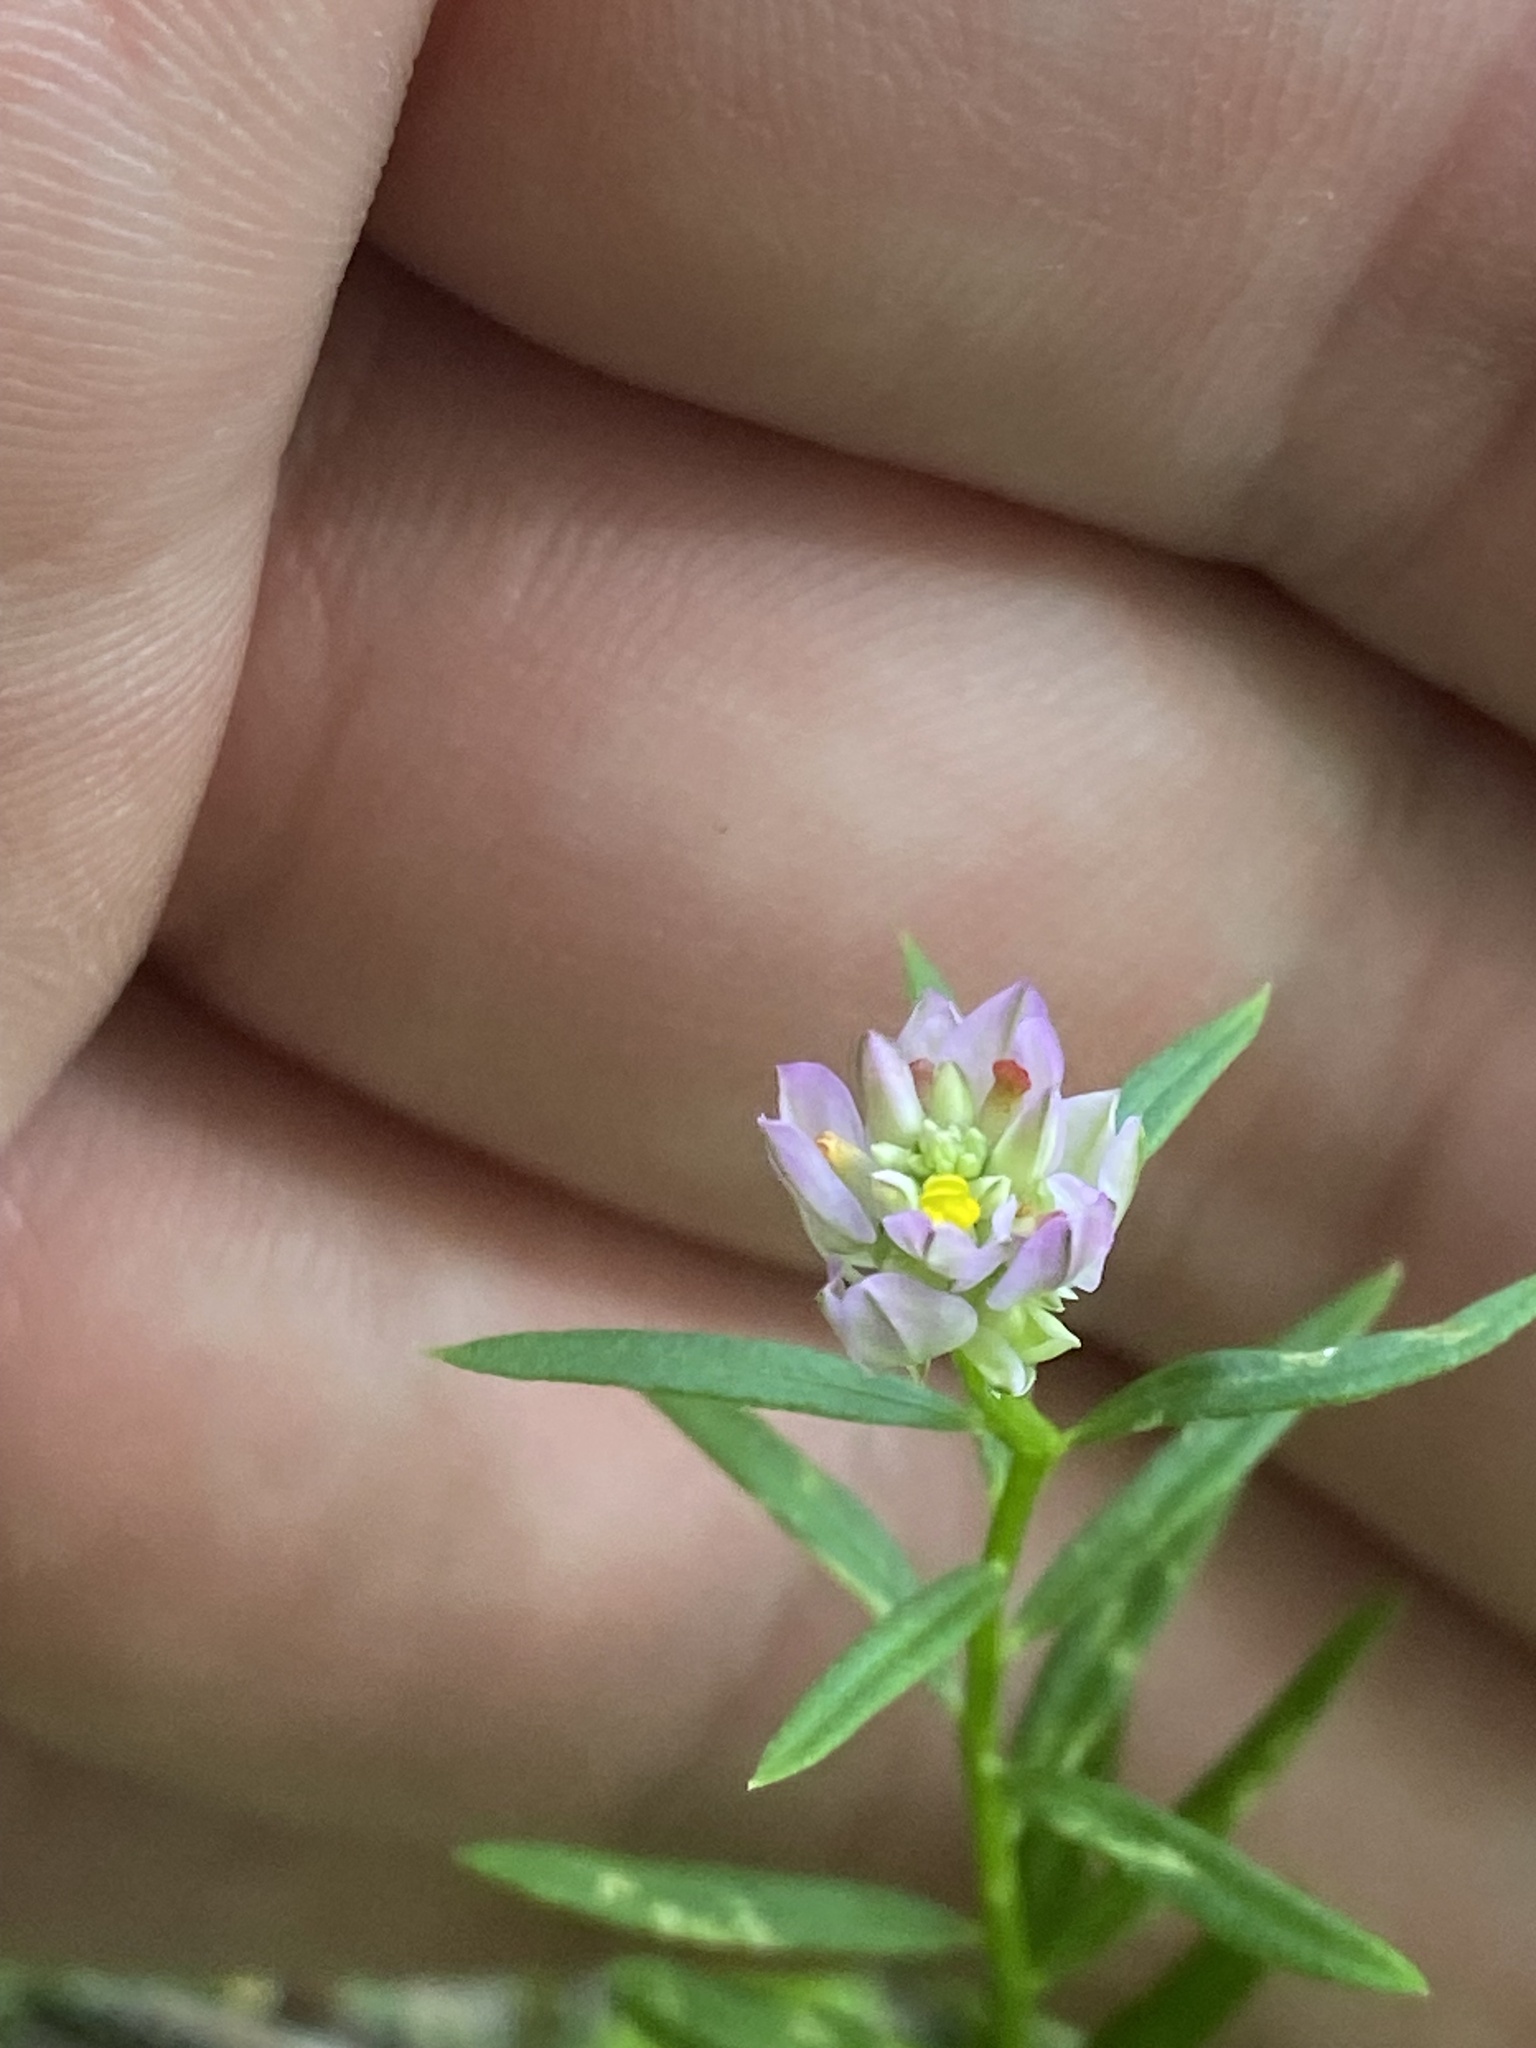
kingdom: Plantae
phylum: Tracheophyta
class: Magnoliopsida
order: Fabales
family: Polygalaceae
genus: Polygala
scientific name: Polygala sanguinea
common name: Blood milkwort
